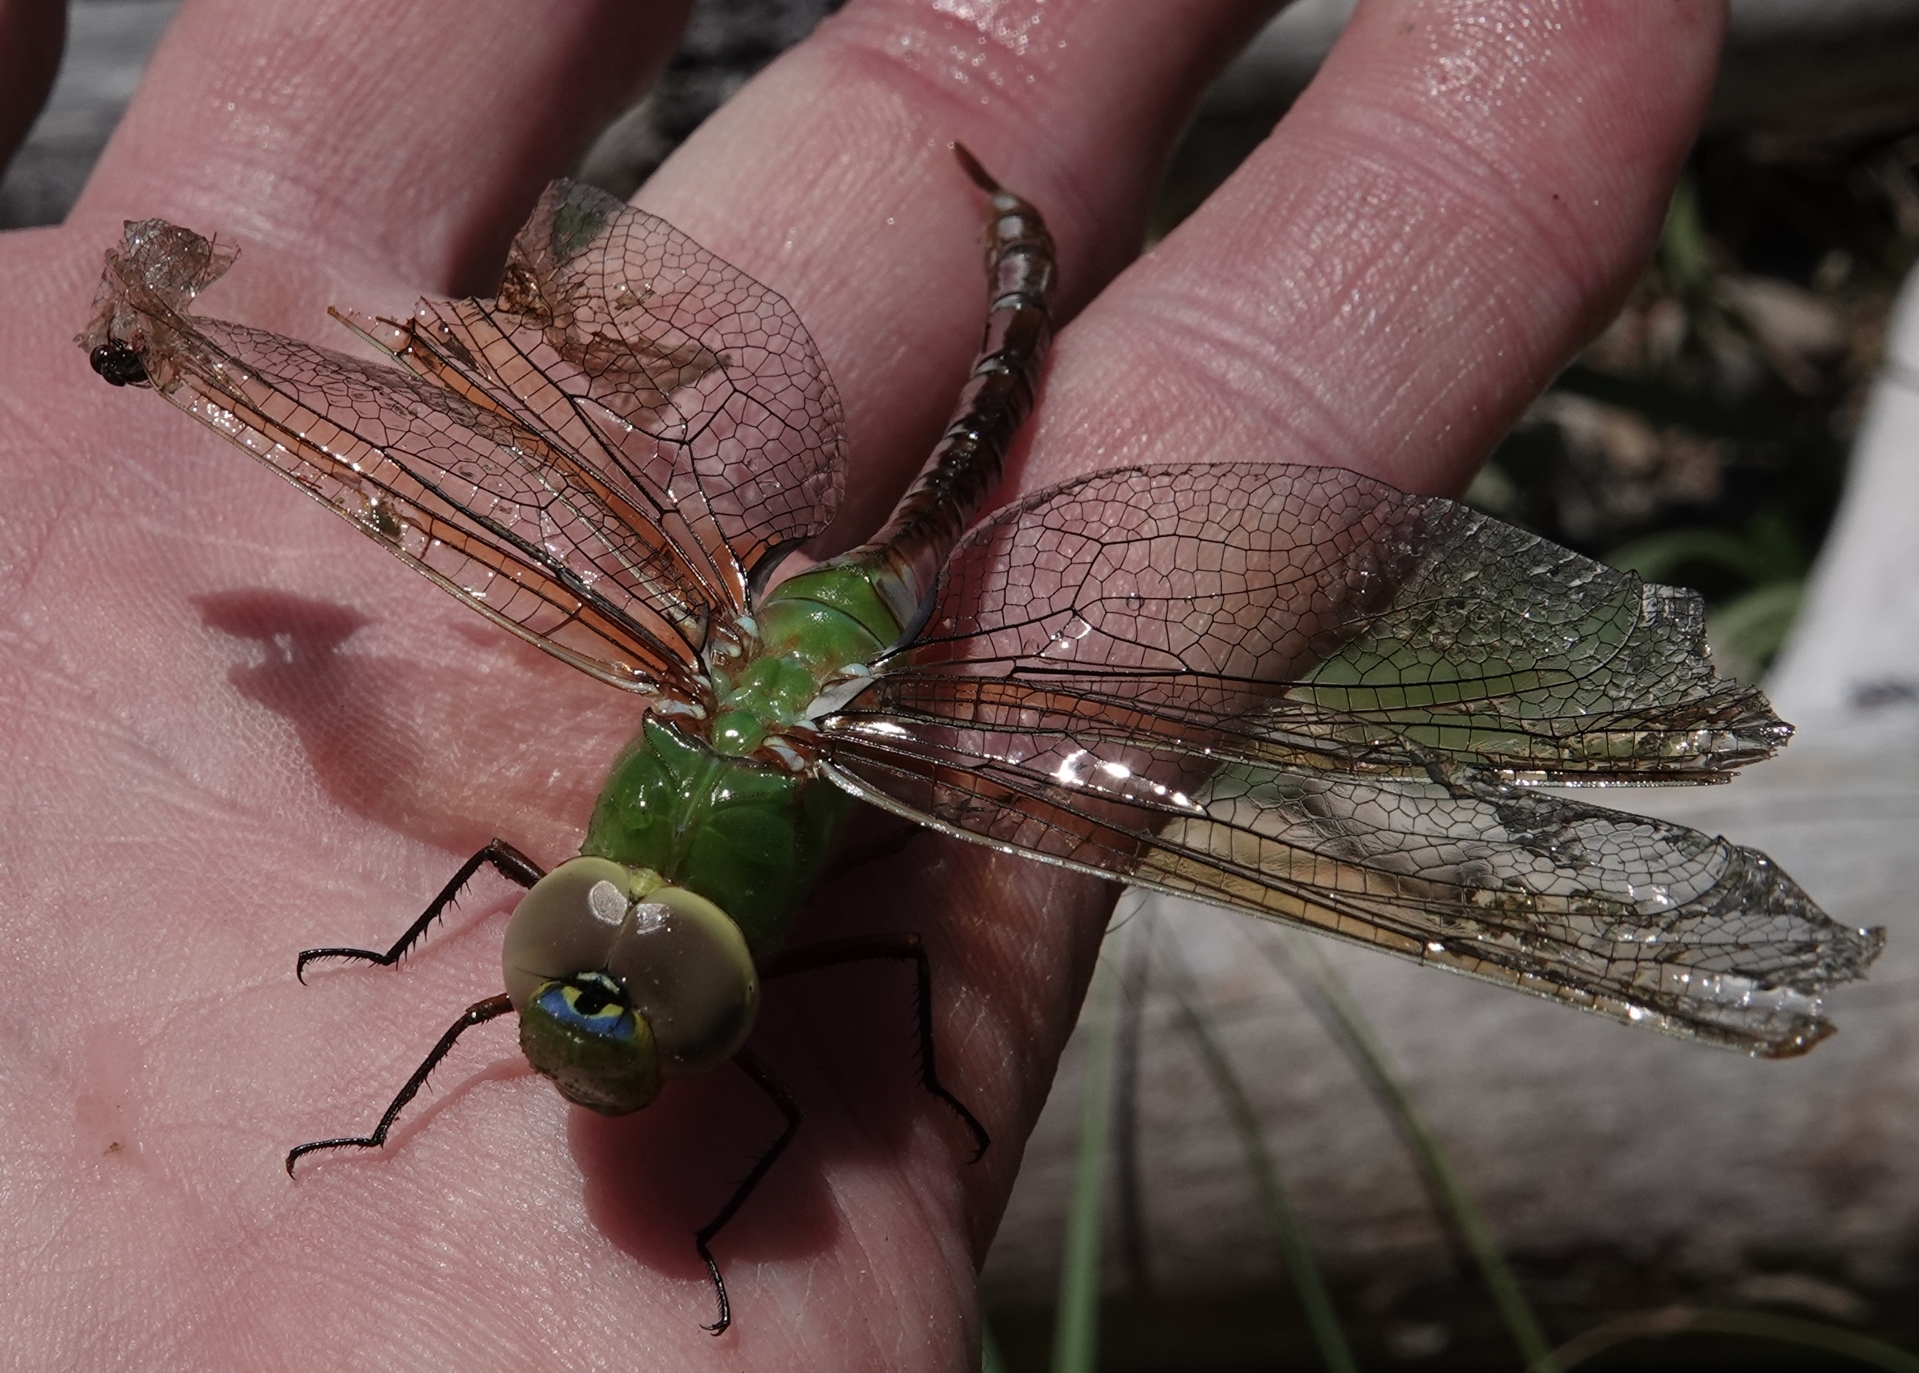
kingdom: Animalia
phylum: Arthropoda
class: Insecta
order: Odonata
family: Aeshnidae
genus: Anax
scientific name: Anax junius
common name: Common green darner
